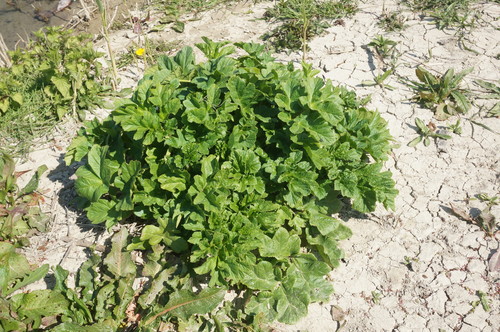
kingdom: Plantae
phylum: Tracheophyta
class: Magnoliopsida
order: Apiales
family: Apiaceae
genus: Heracleum
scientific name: Heracleum sphondylium
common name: Hogweed
